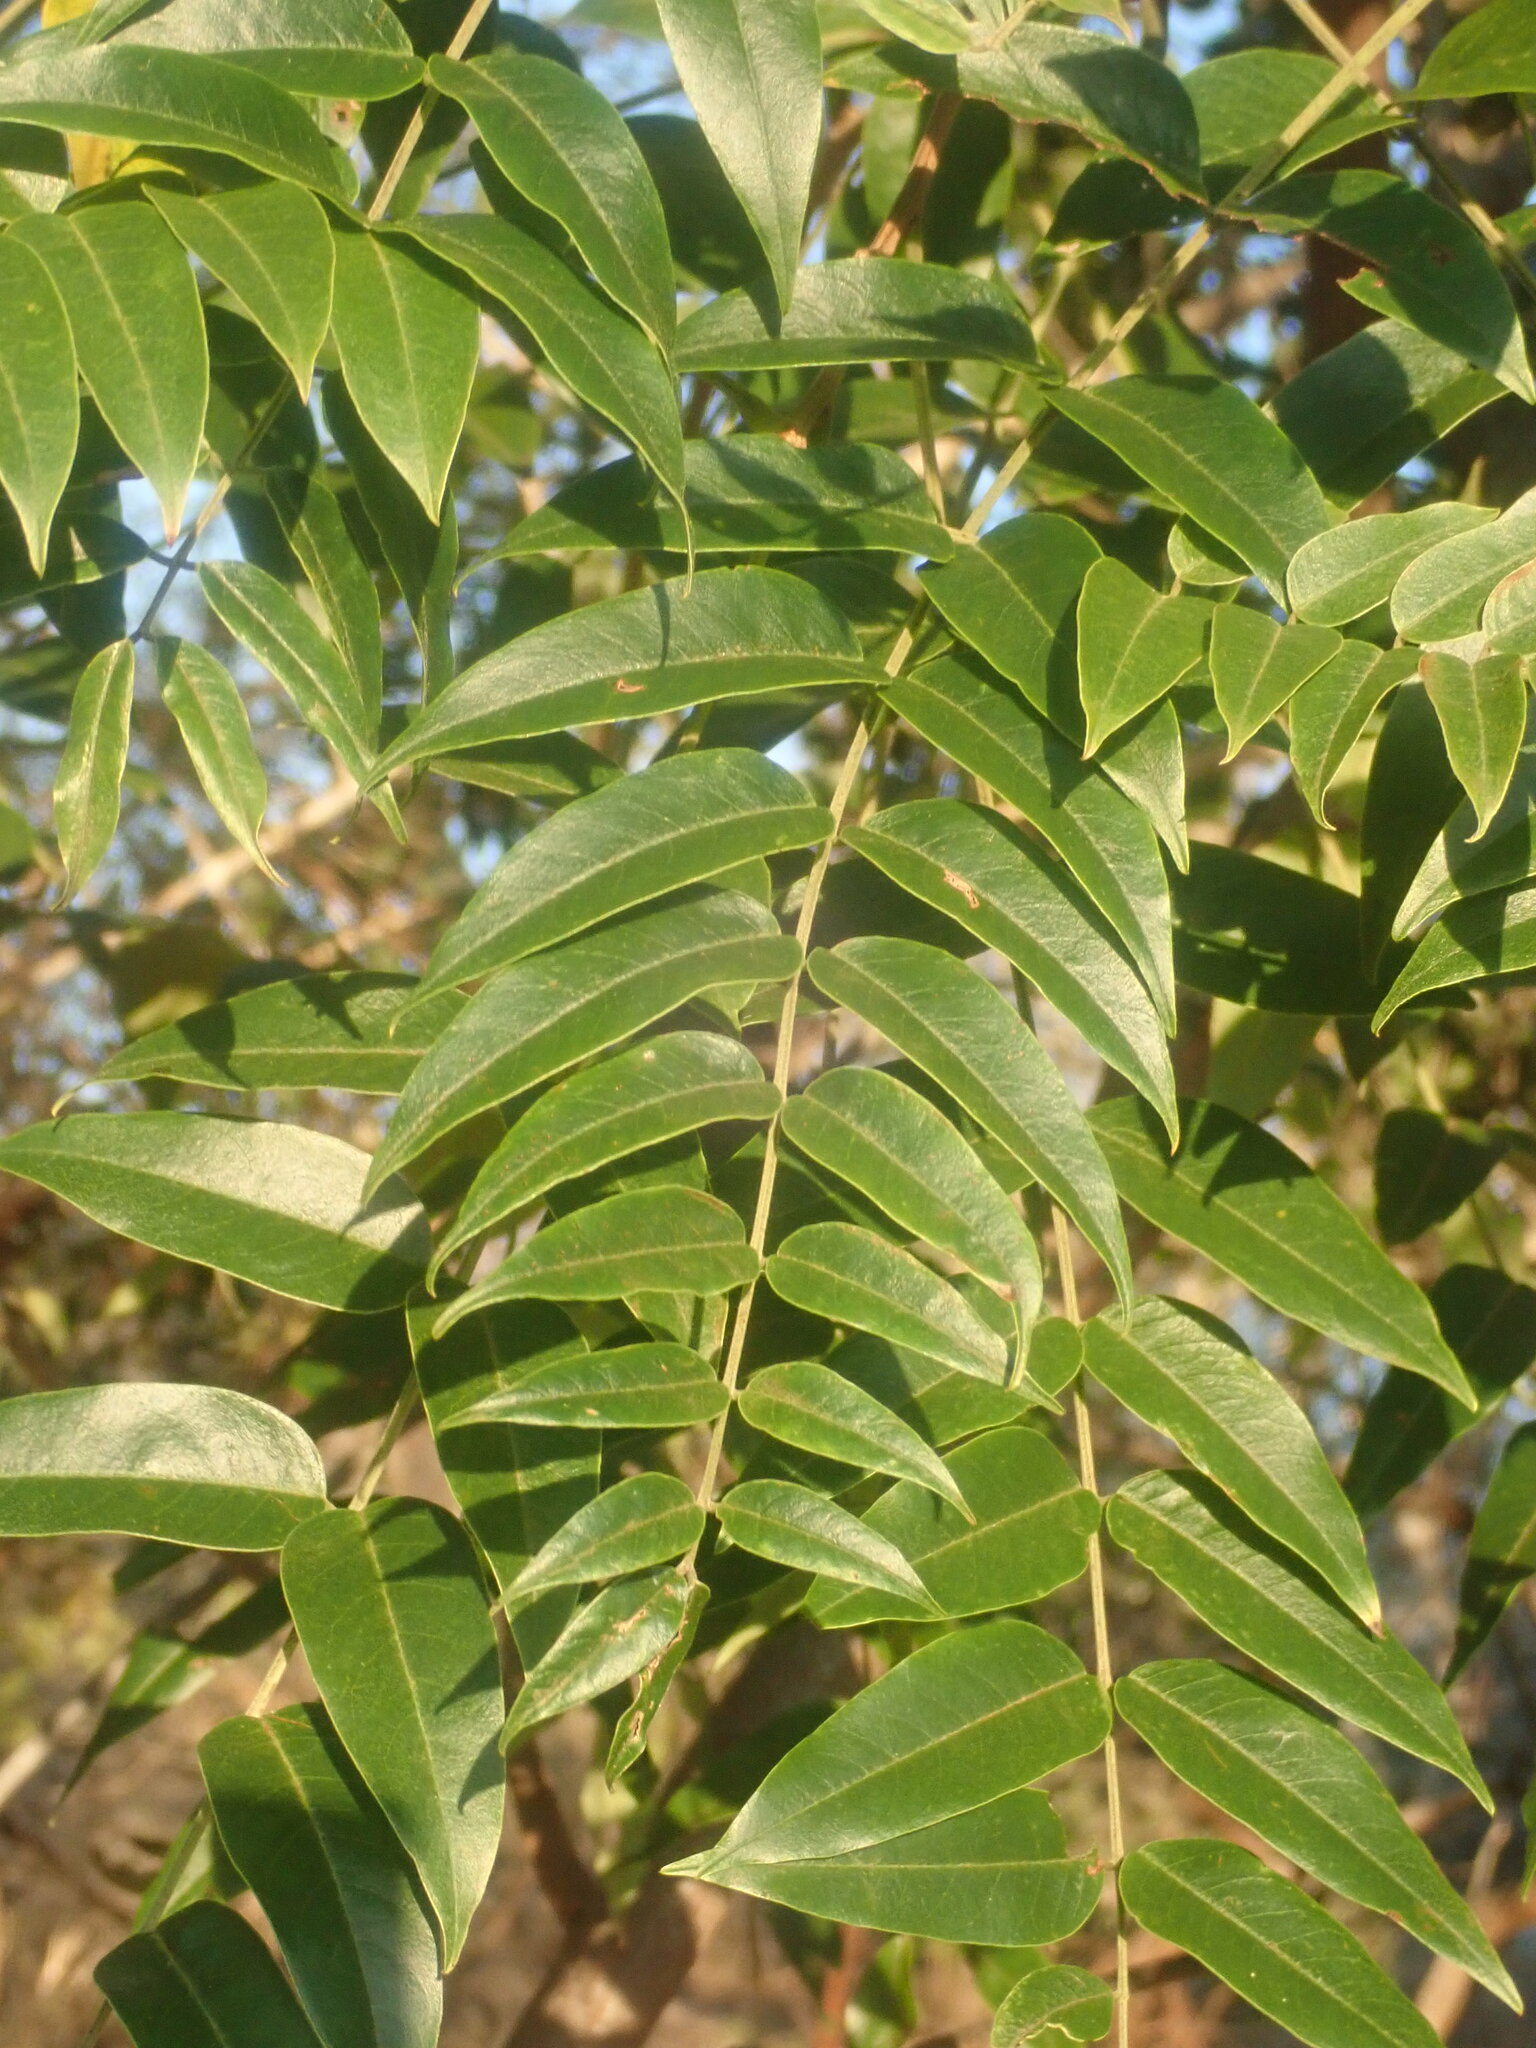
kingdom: Plantae
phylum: Tracheophyta
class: Magnoliopsida
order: Fabales
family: Fabaceae
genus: Senna
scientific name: Senna petersiana
